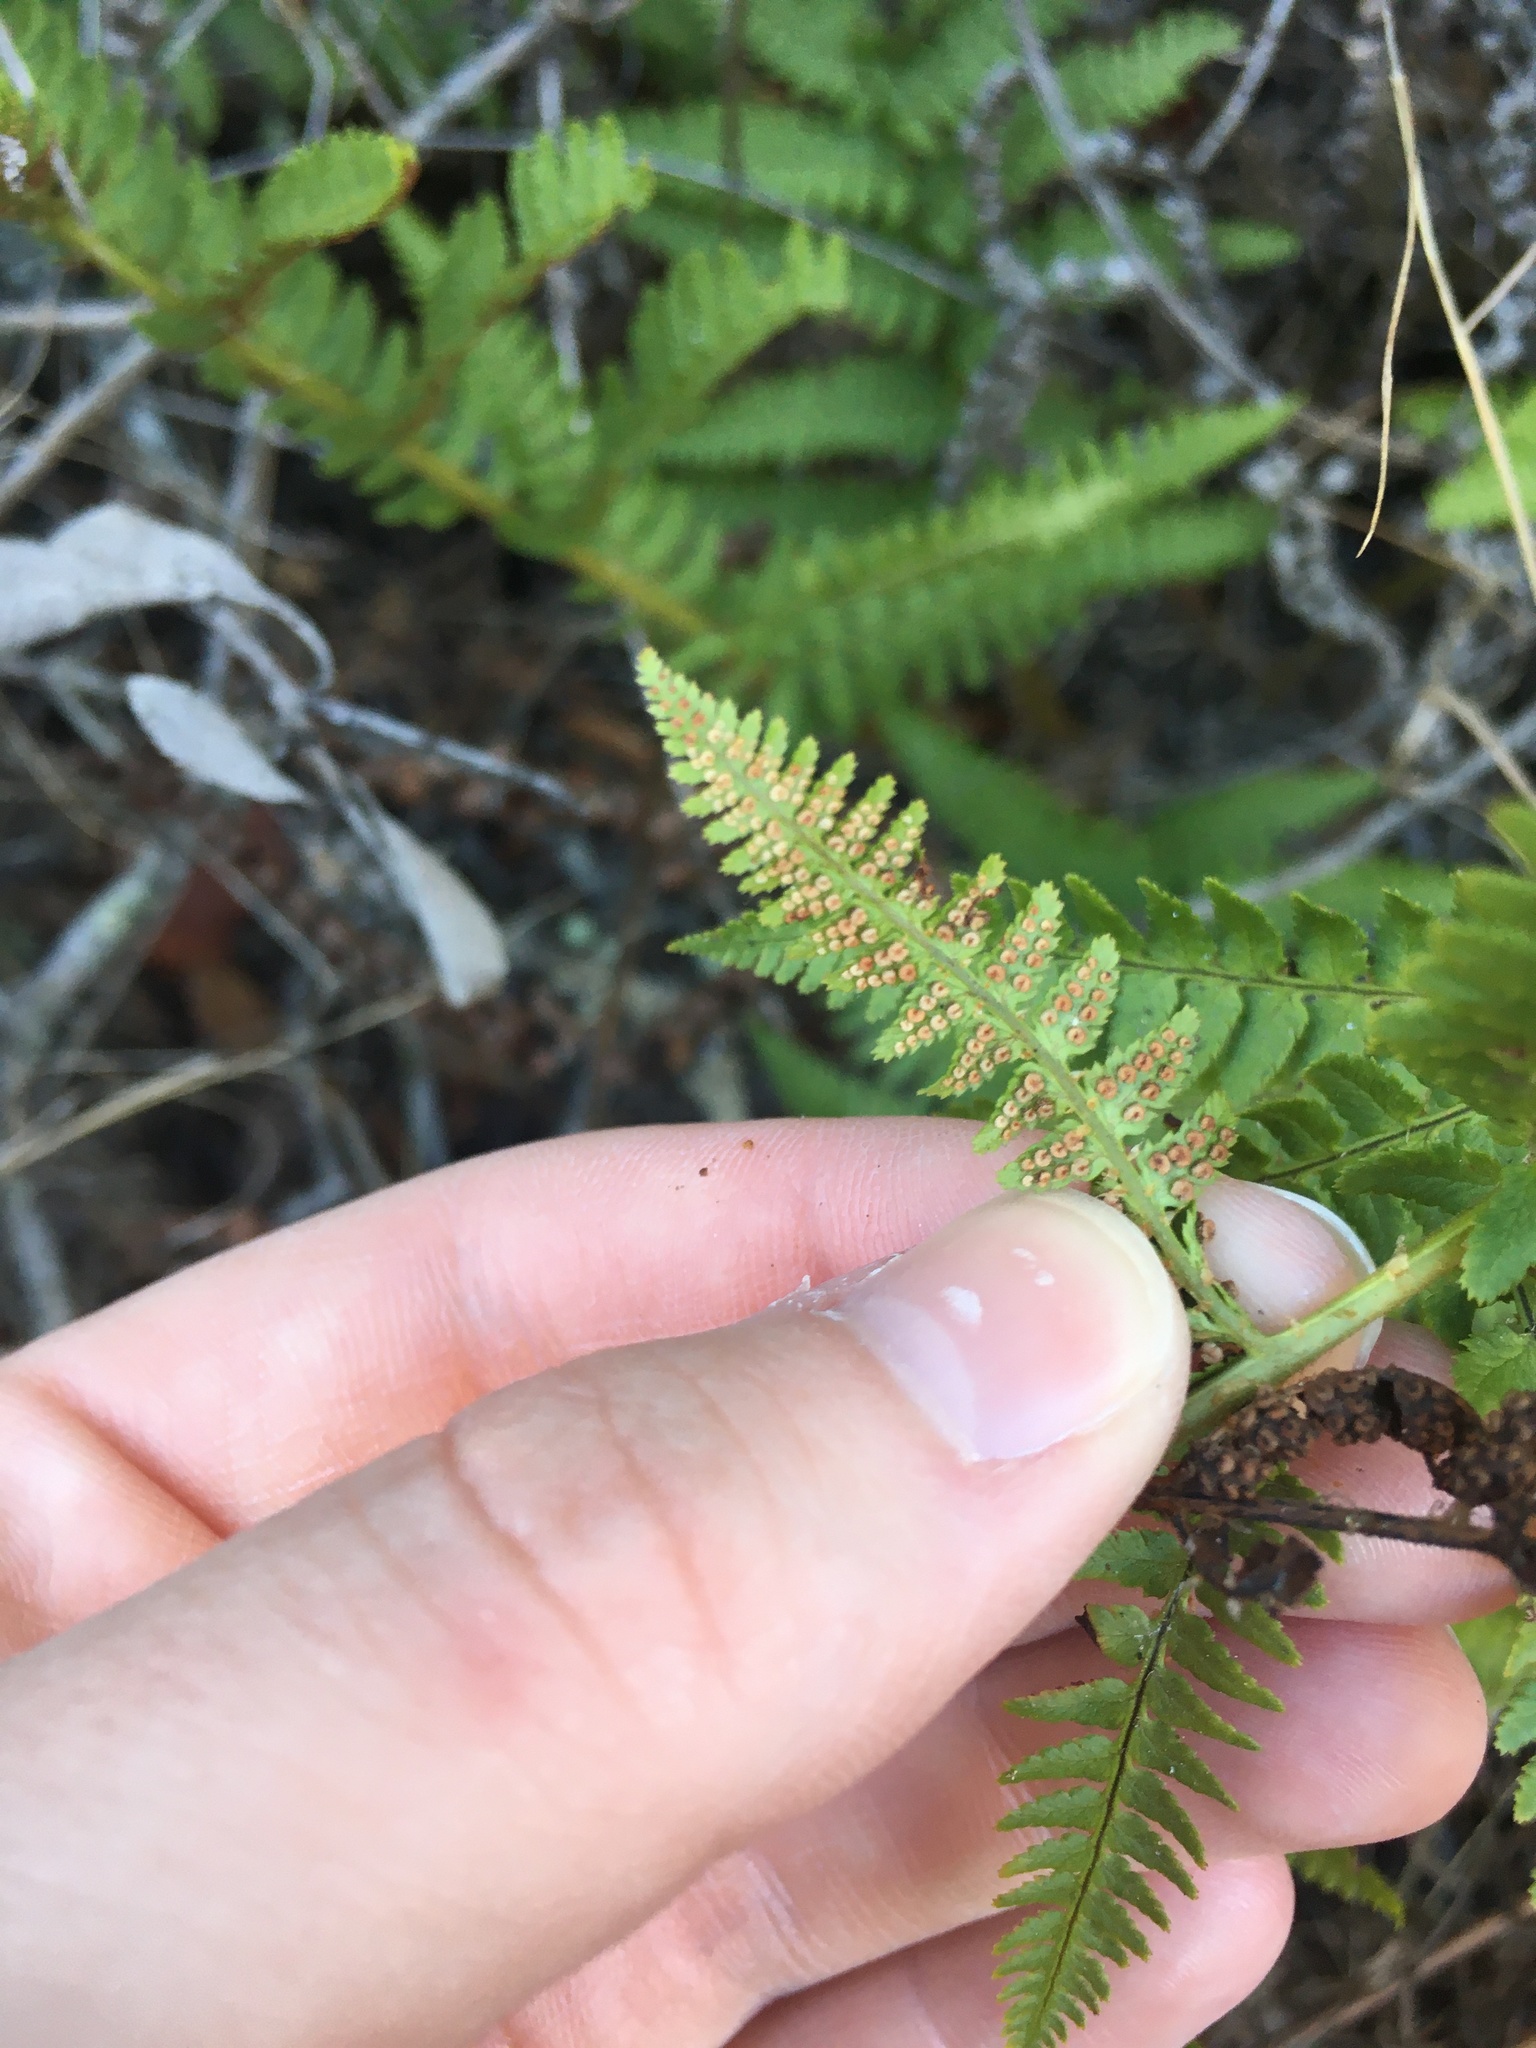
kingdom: Plantae
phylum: Tracheophyta
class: Polypodiopsida
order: Polypodiales
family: Dryopteridaceae
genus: Dryopteris
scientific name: Dryopteris arguta
